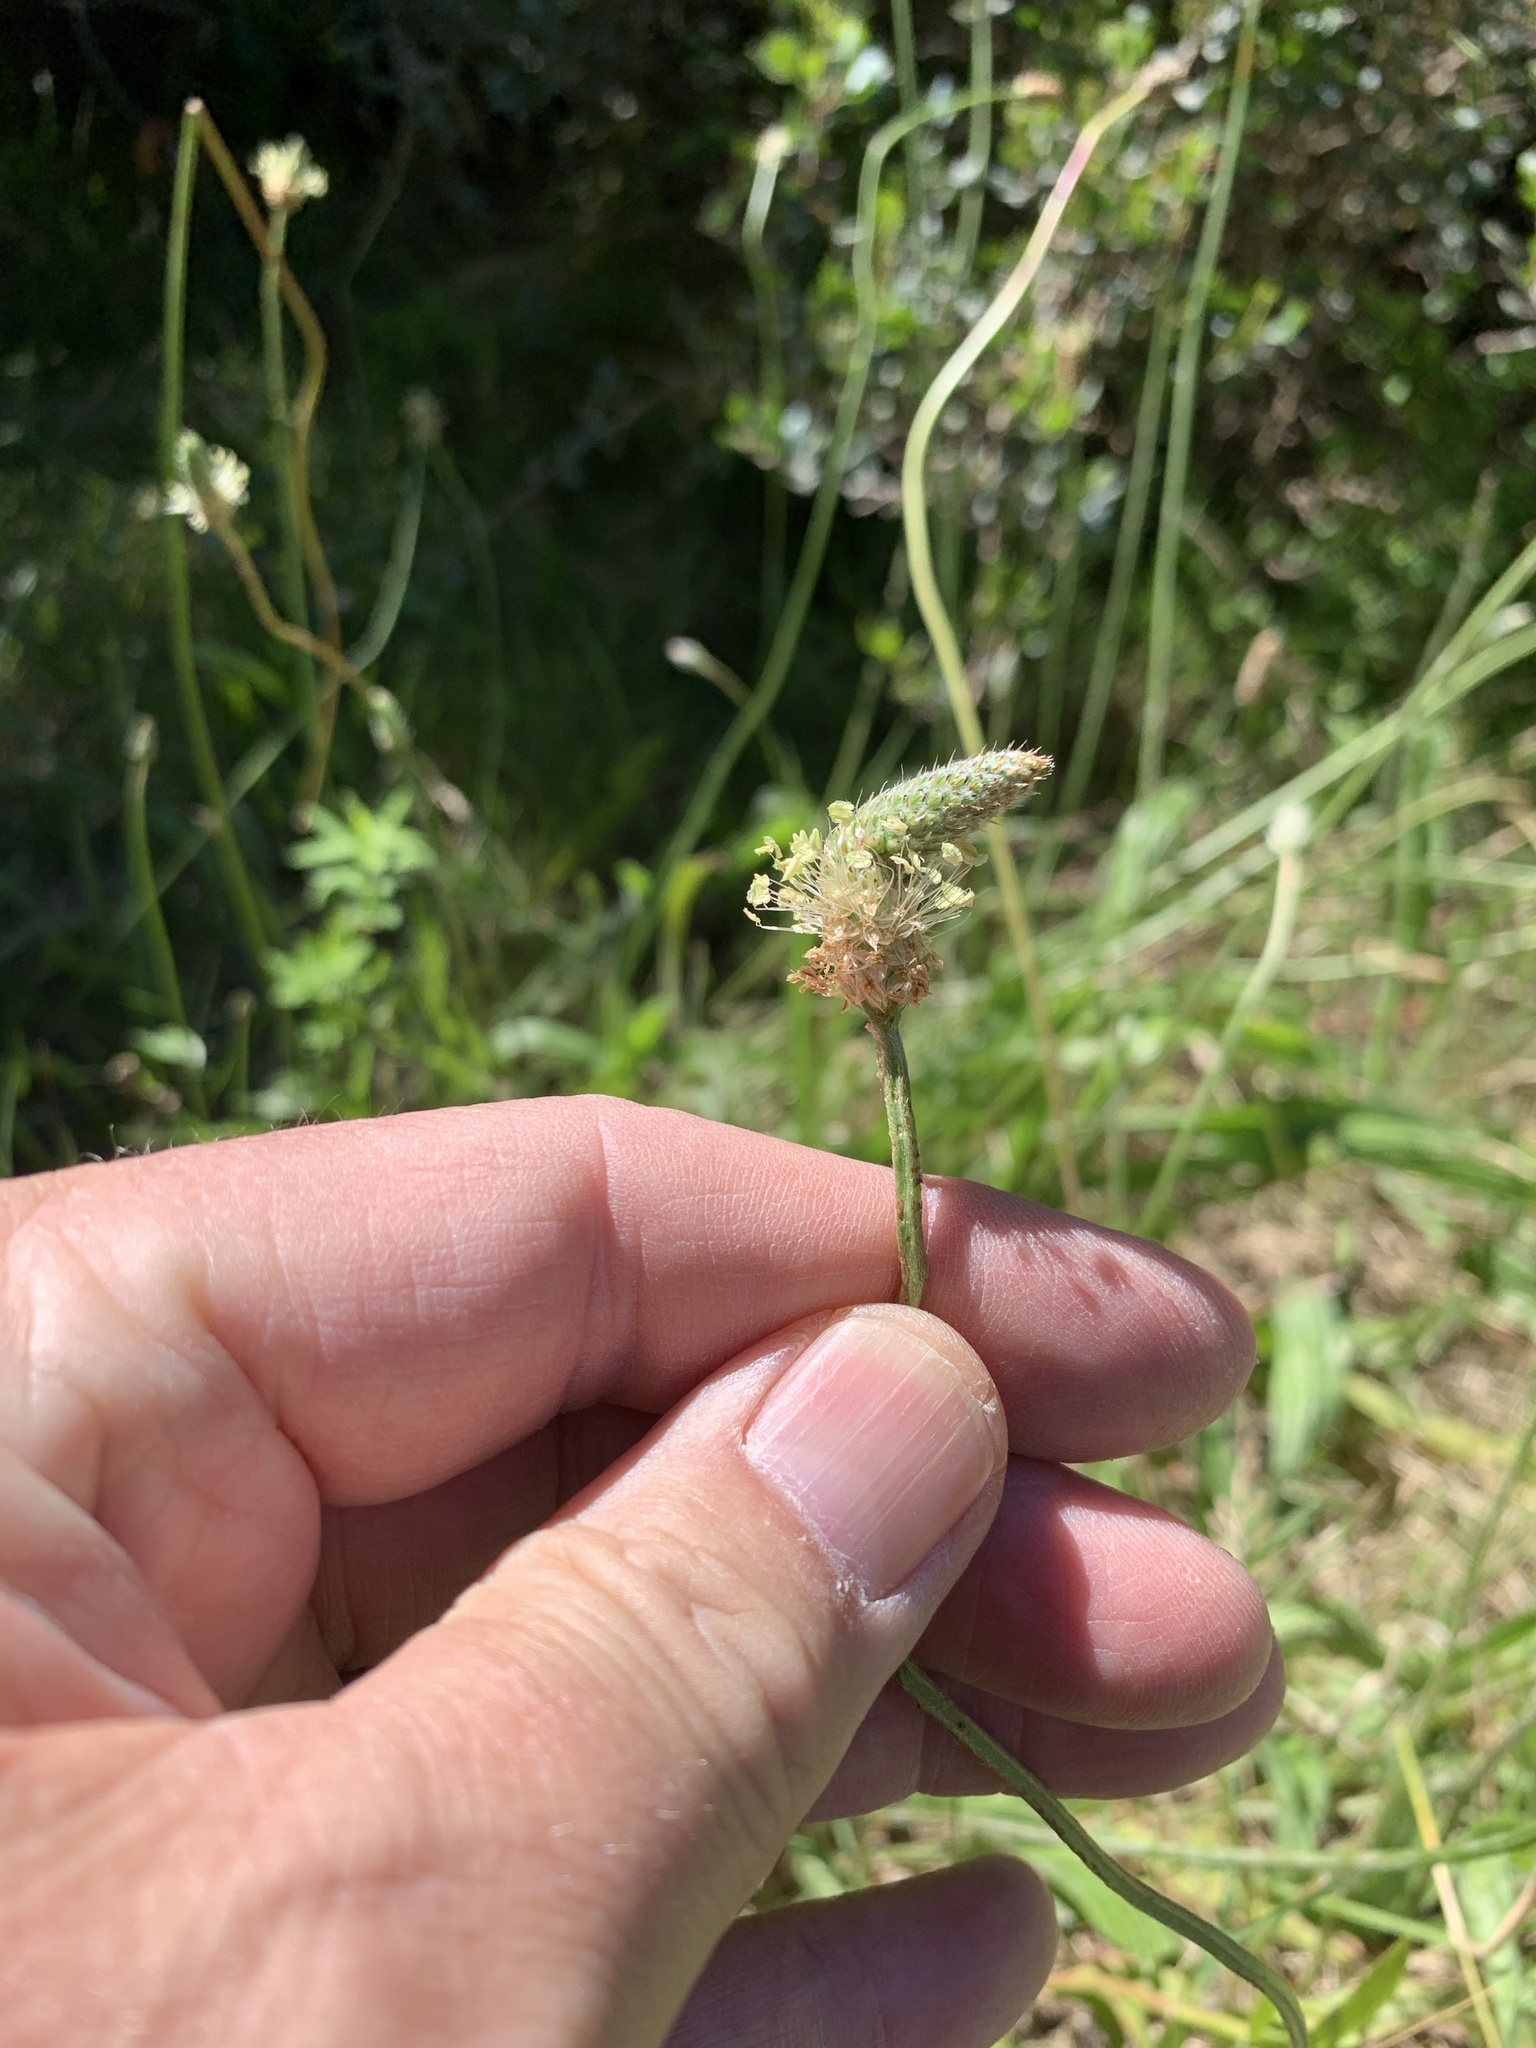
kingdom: Plantae
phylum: Tracheophyta
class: Magnoliopsida
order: Lamiales
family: Plantaginaceae
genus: Plantago
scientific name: Plantago lanceolata
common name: Ribwort plantain
